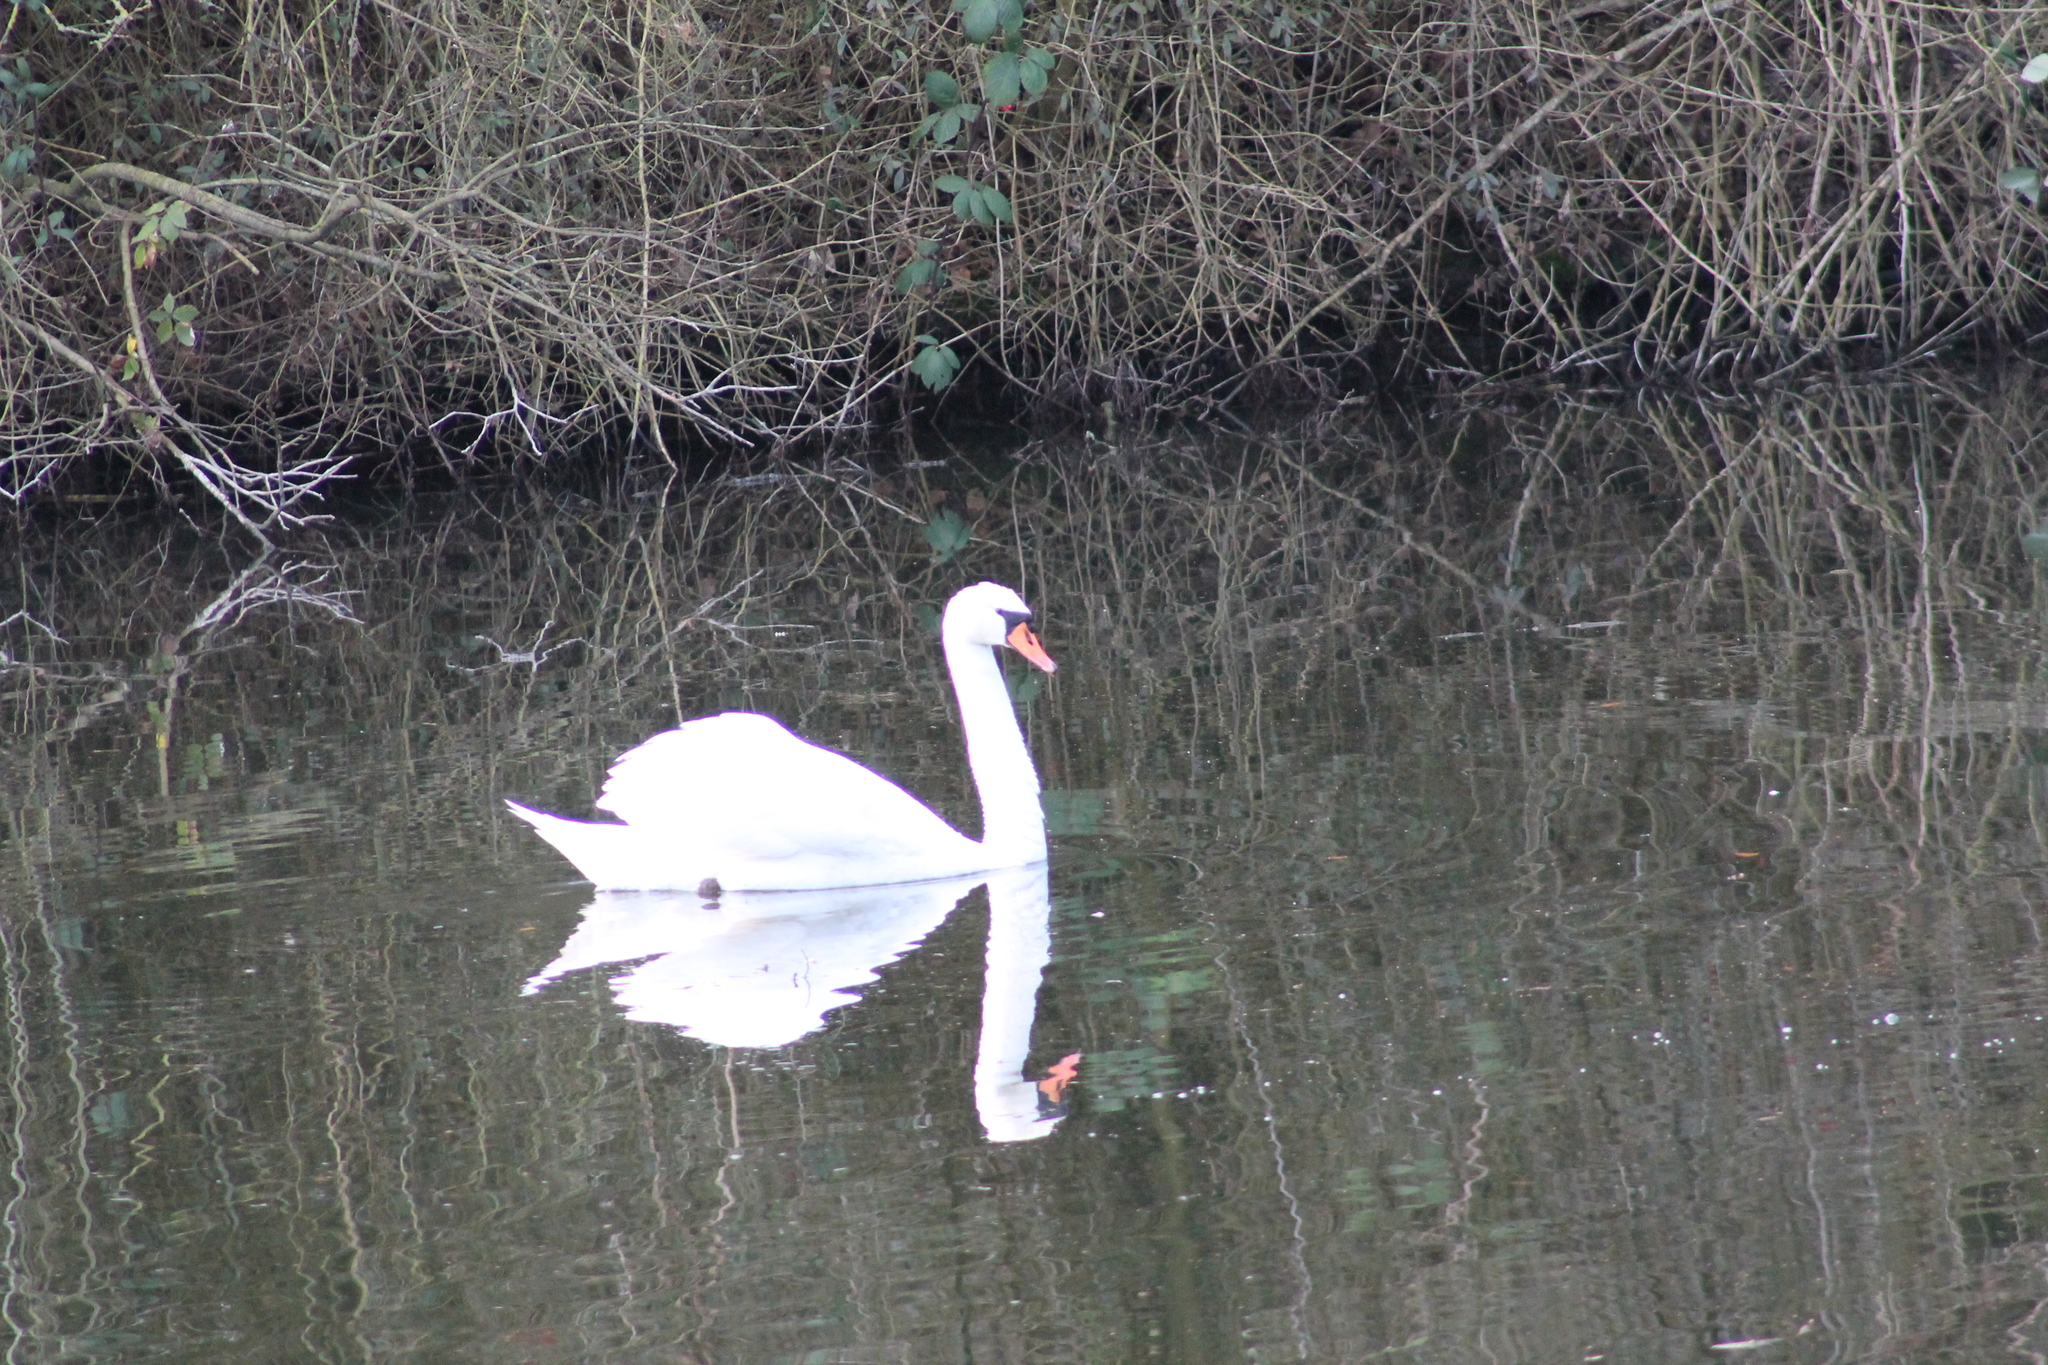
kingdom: Animalia
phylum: Chordata
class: Aves
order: Anseriformes
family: Anatidae
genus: Cygnus
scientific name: Cygnus olor
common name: Mute swan
